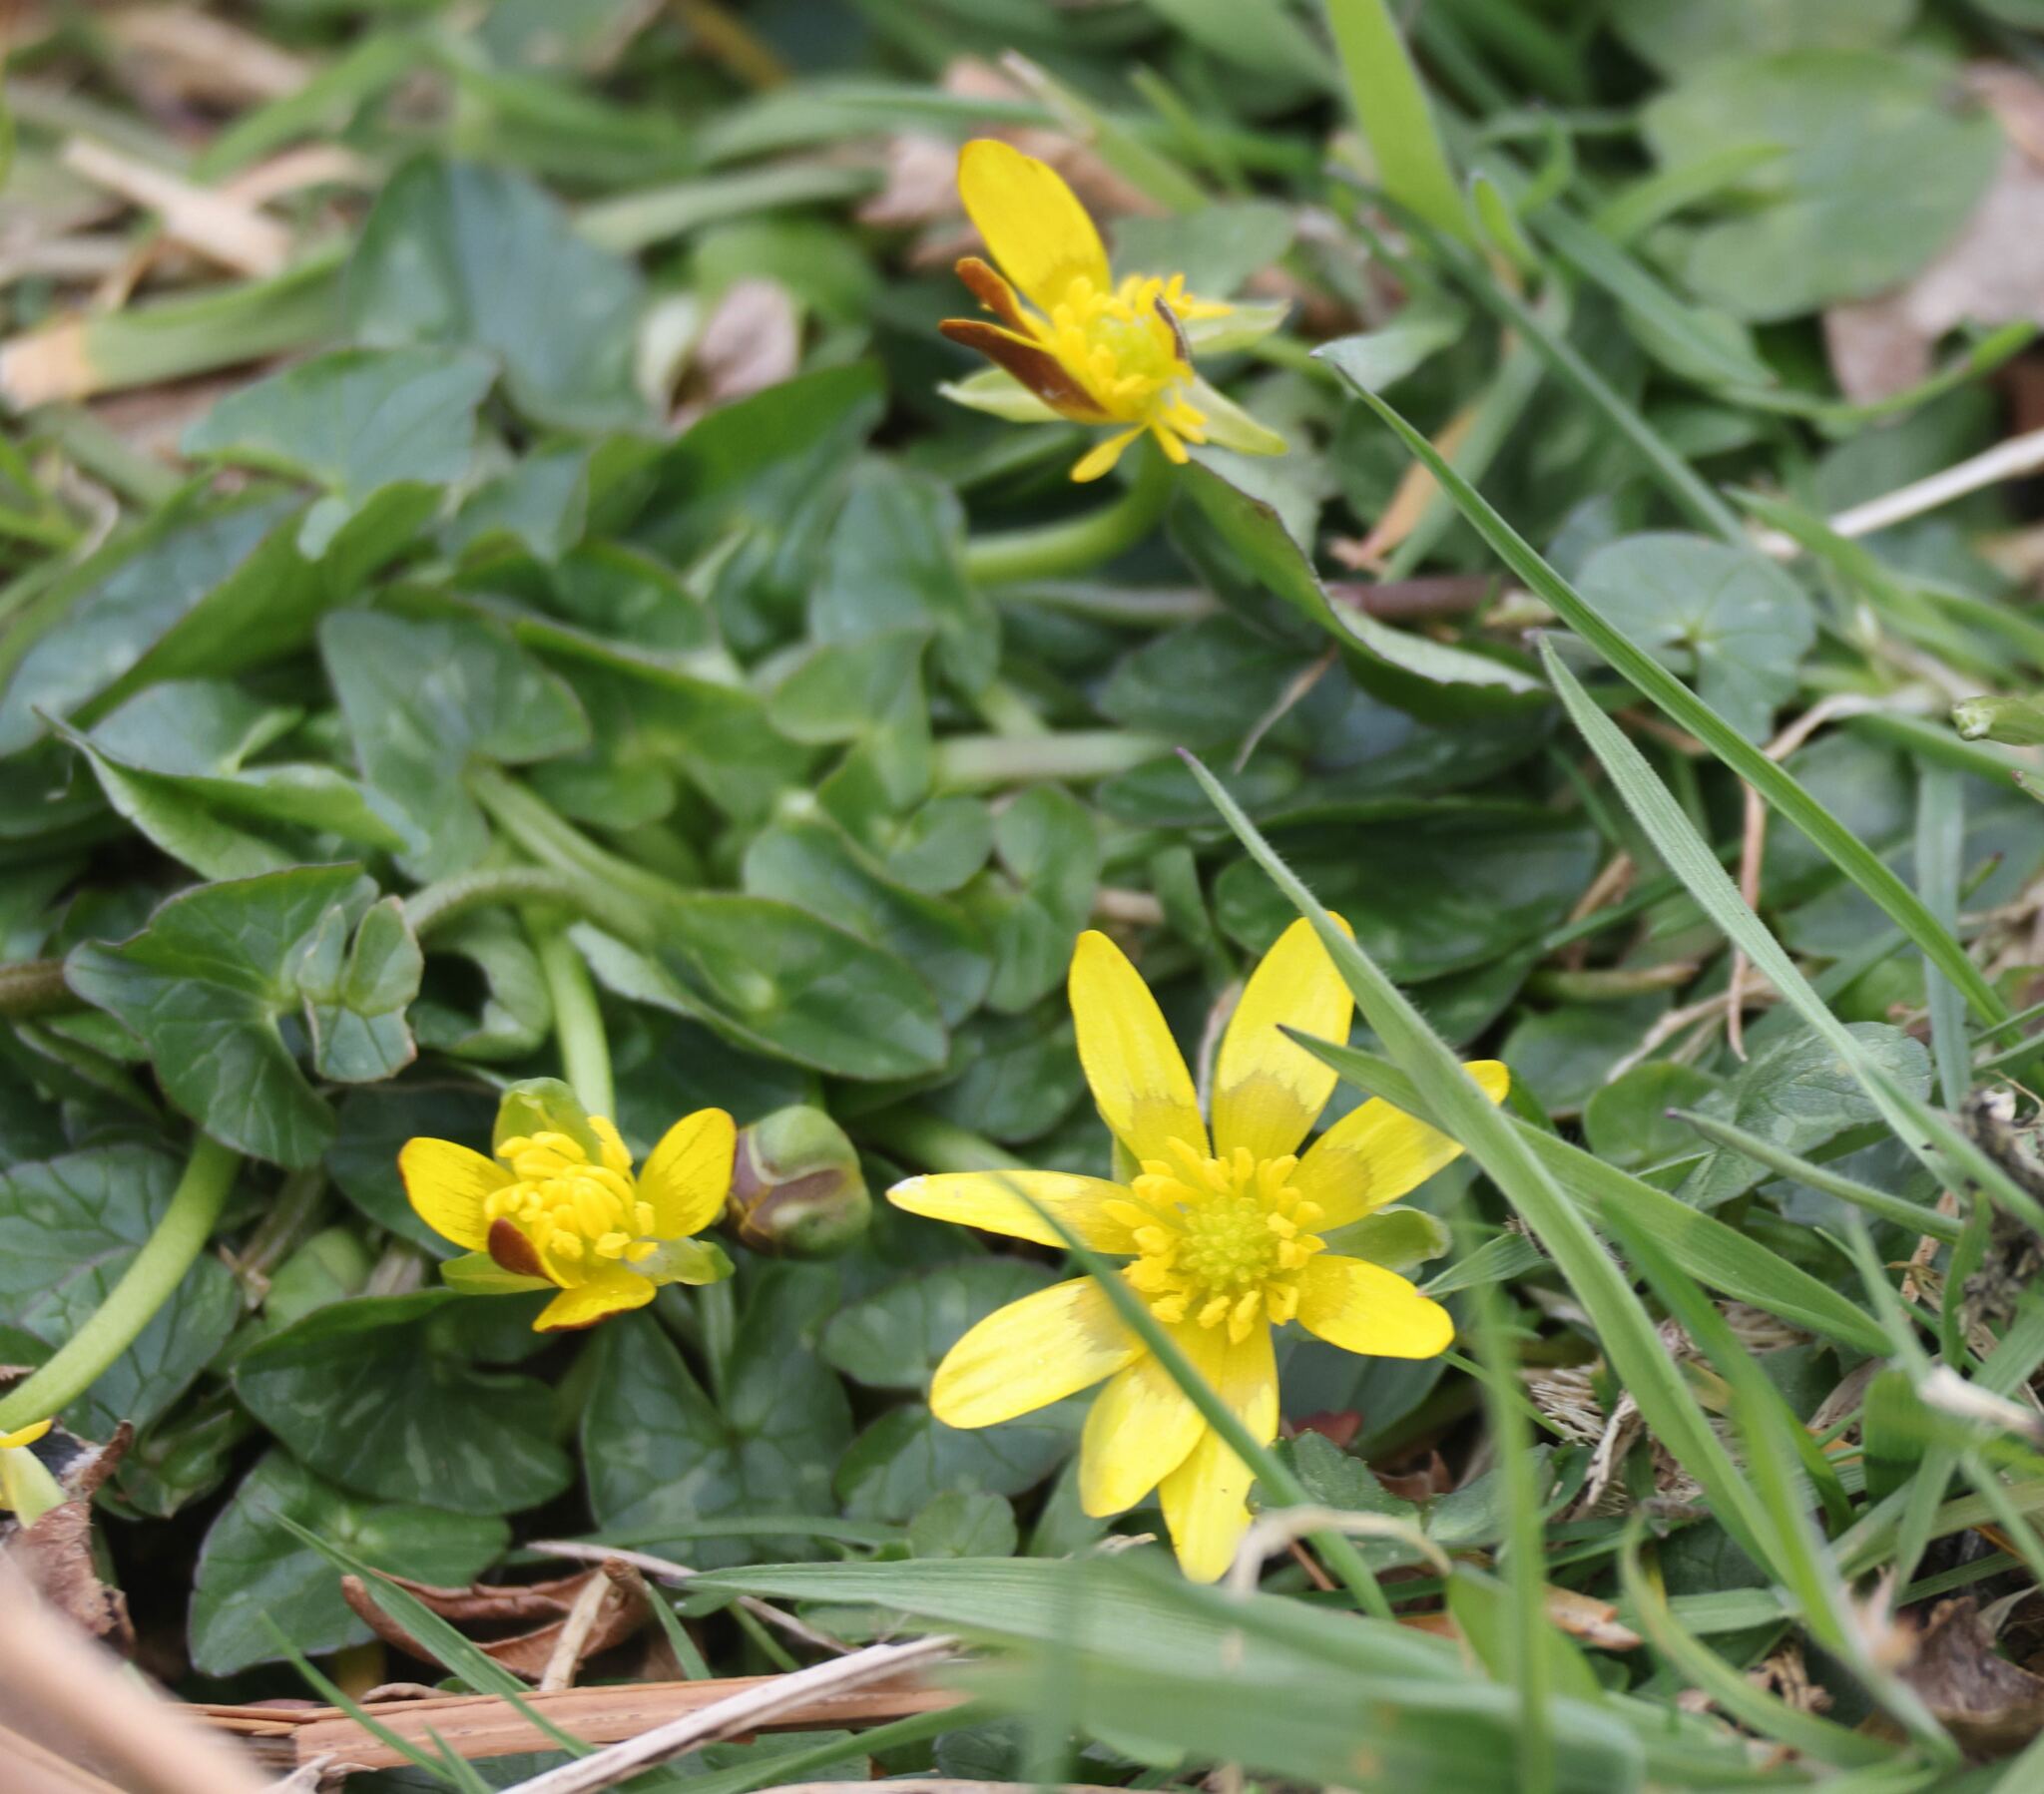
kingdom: Plantae
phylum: Tracheophyta
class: Magnoliopsida
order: Ranunculales
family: Ranunculaceae
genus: Ficaria
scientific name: Ficaria verna
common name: Lesser celandine
